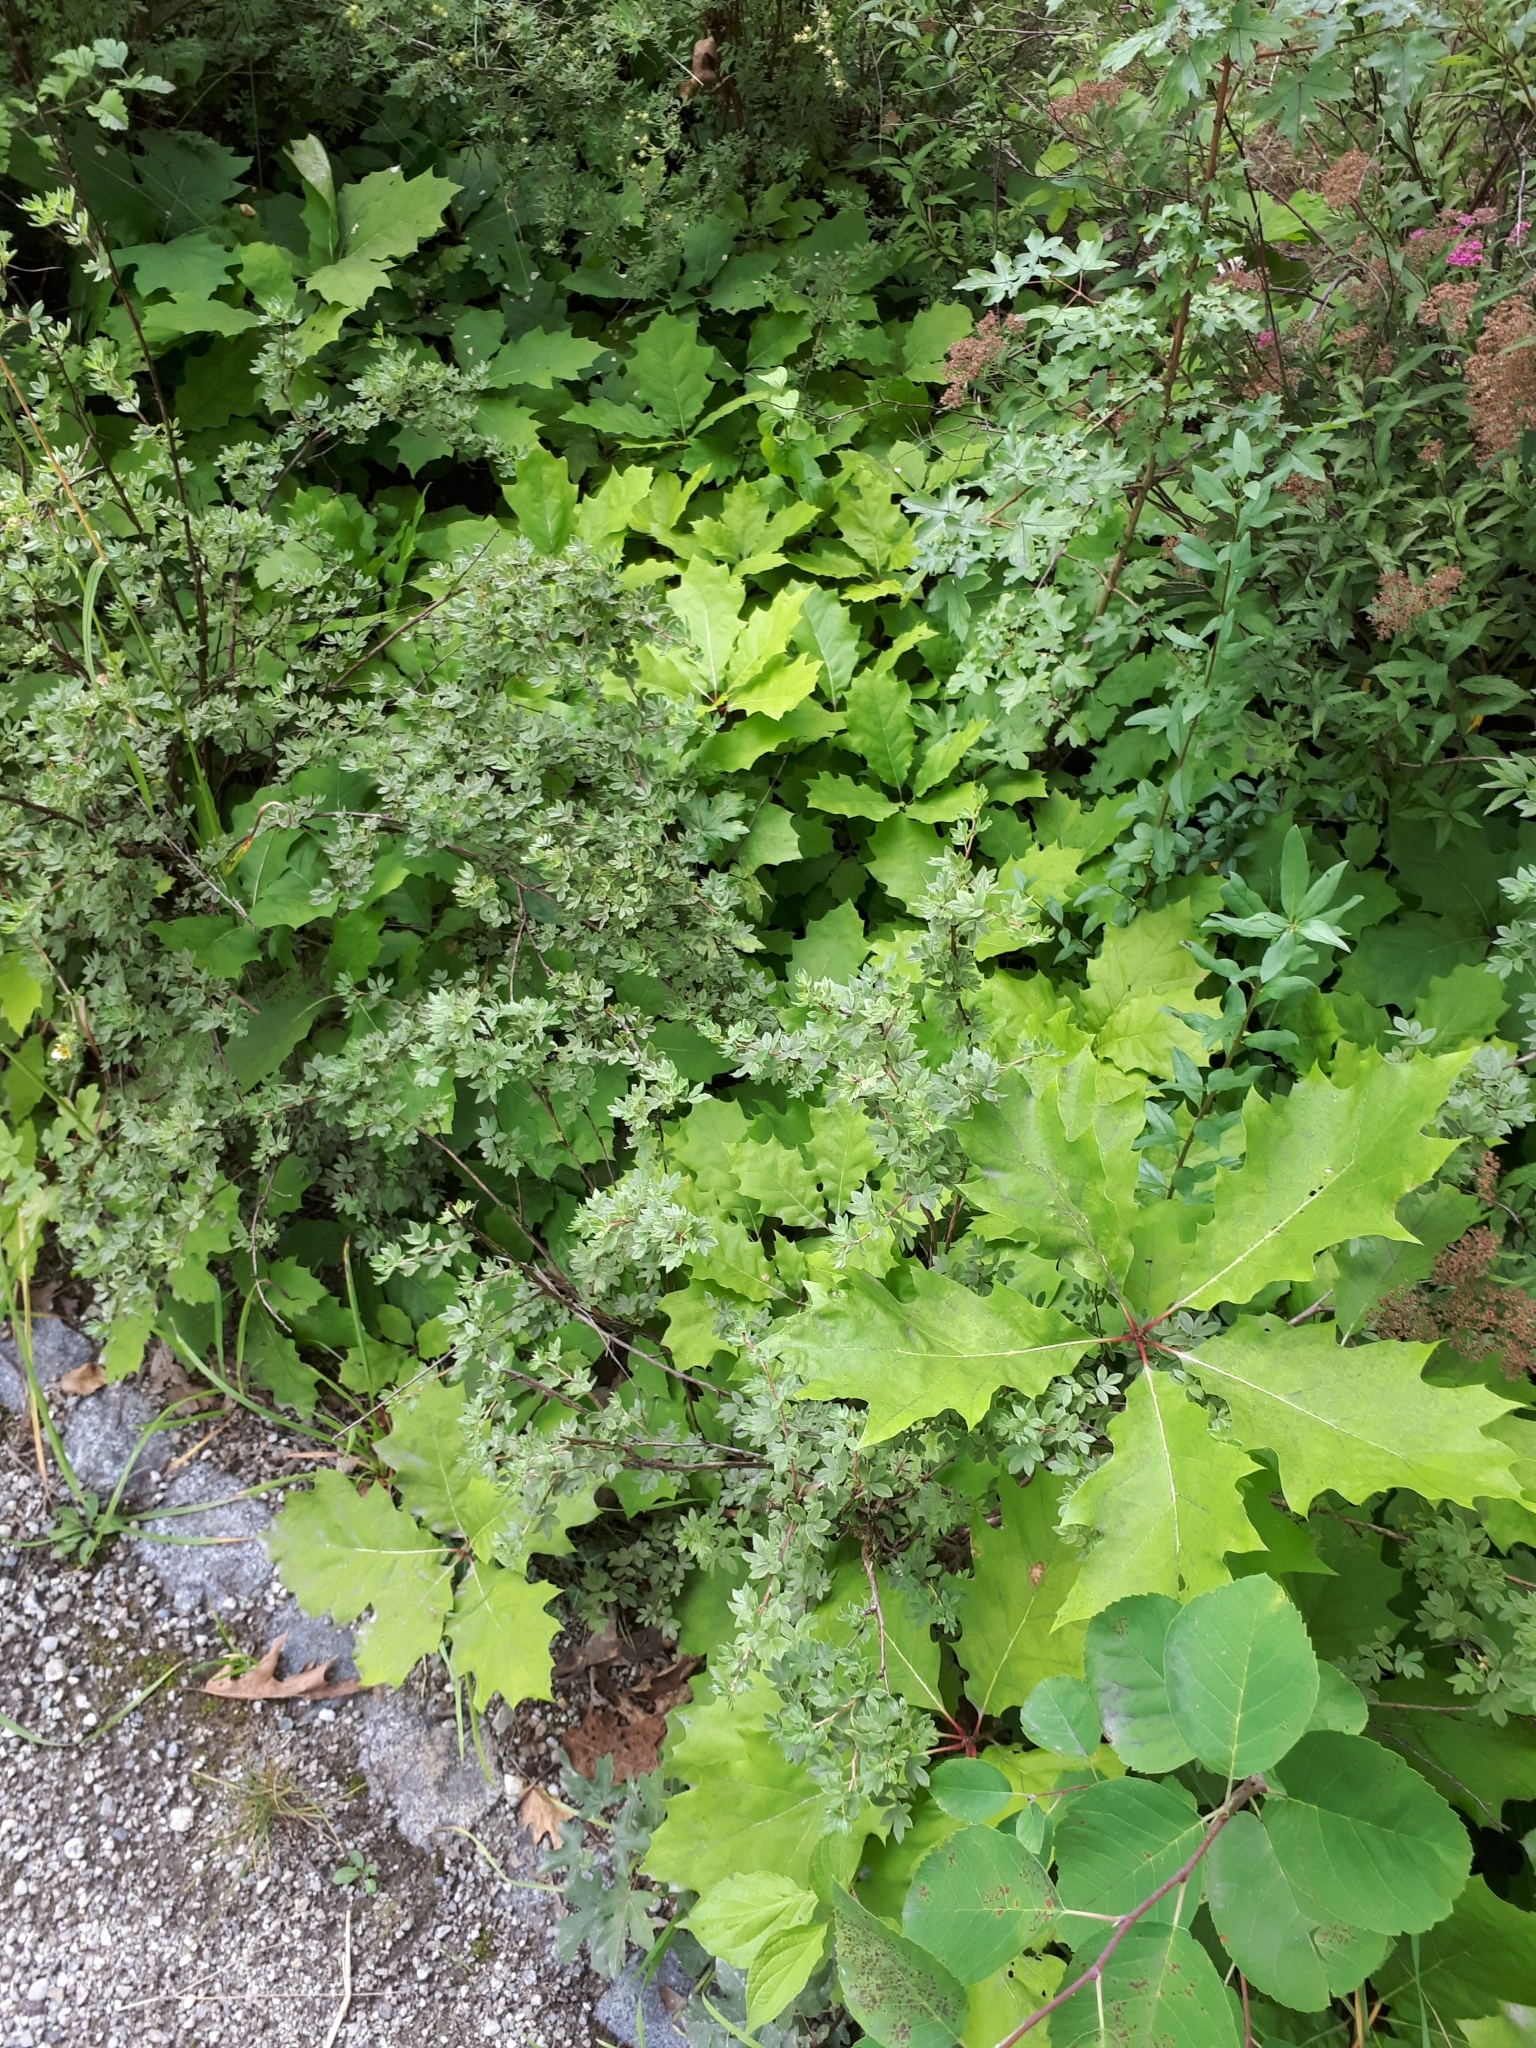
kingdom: Plantae
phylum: Tracheophyta
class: Magnoliopsida
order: Fagales
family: Fagaceae
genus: Quercus
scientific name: Quercus rubra
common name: Red oak
